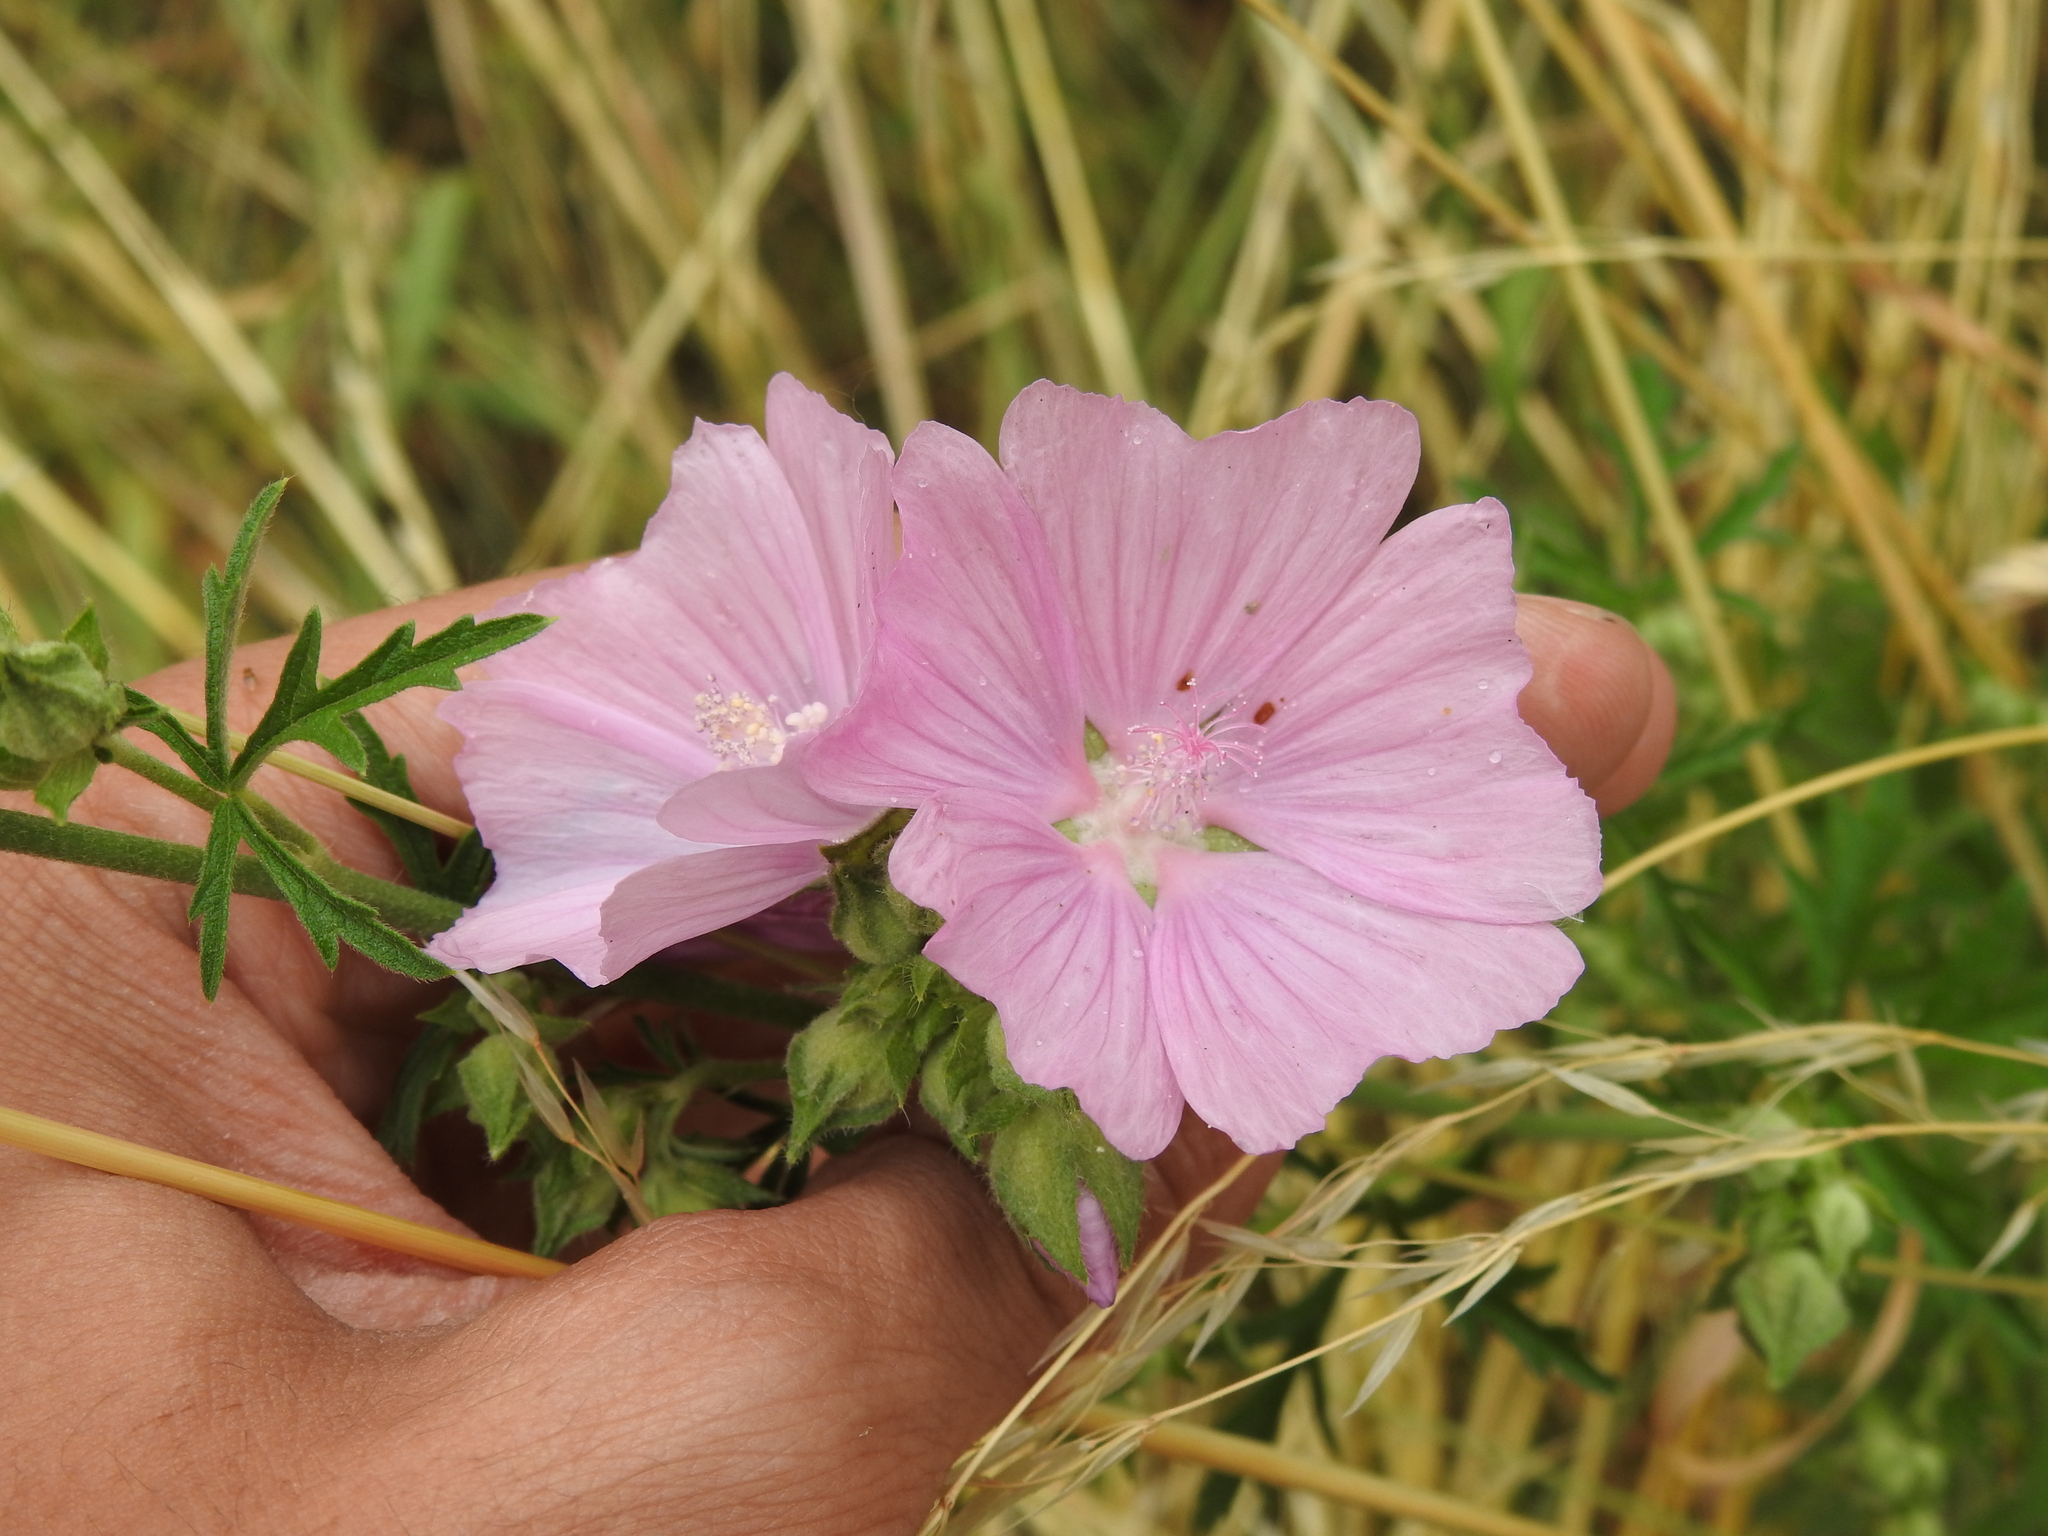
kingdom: Plantae
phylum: Tracheophyta
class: Magnoliopsida
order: Malvales
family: Malvaceae
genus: Malva
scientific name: Malva alcea
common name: Greater musk-mallow
